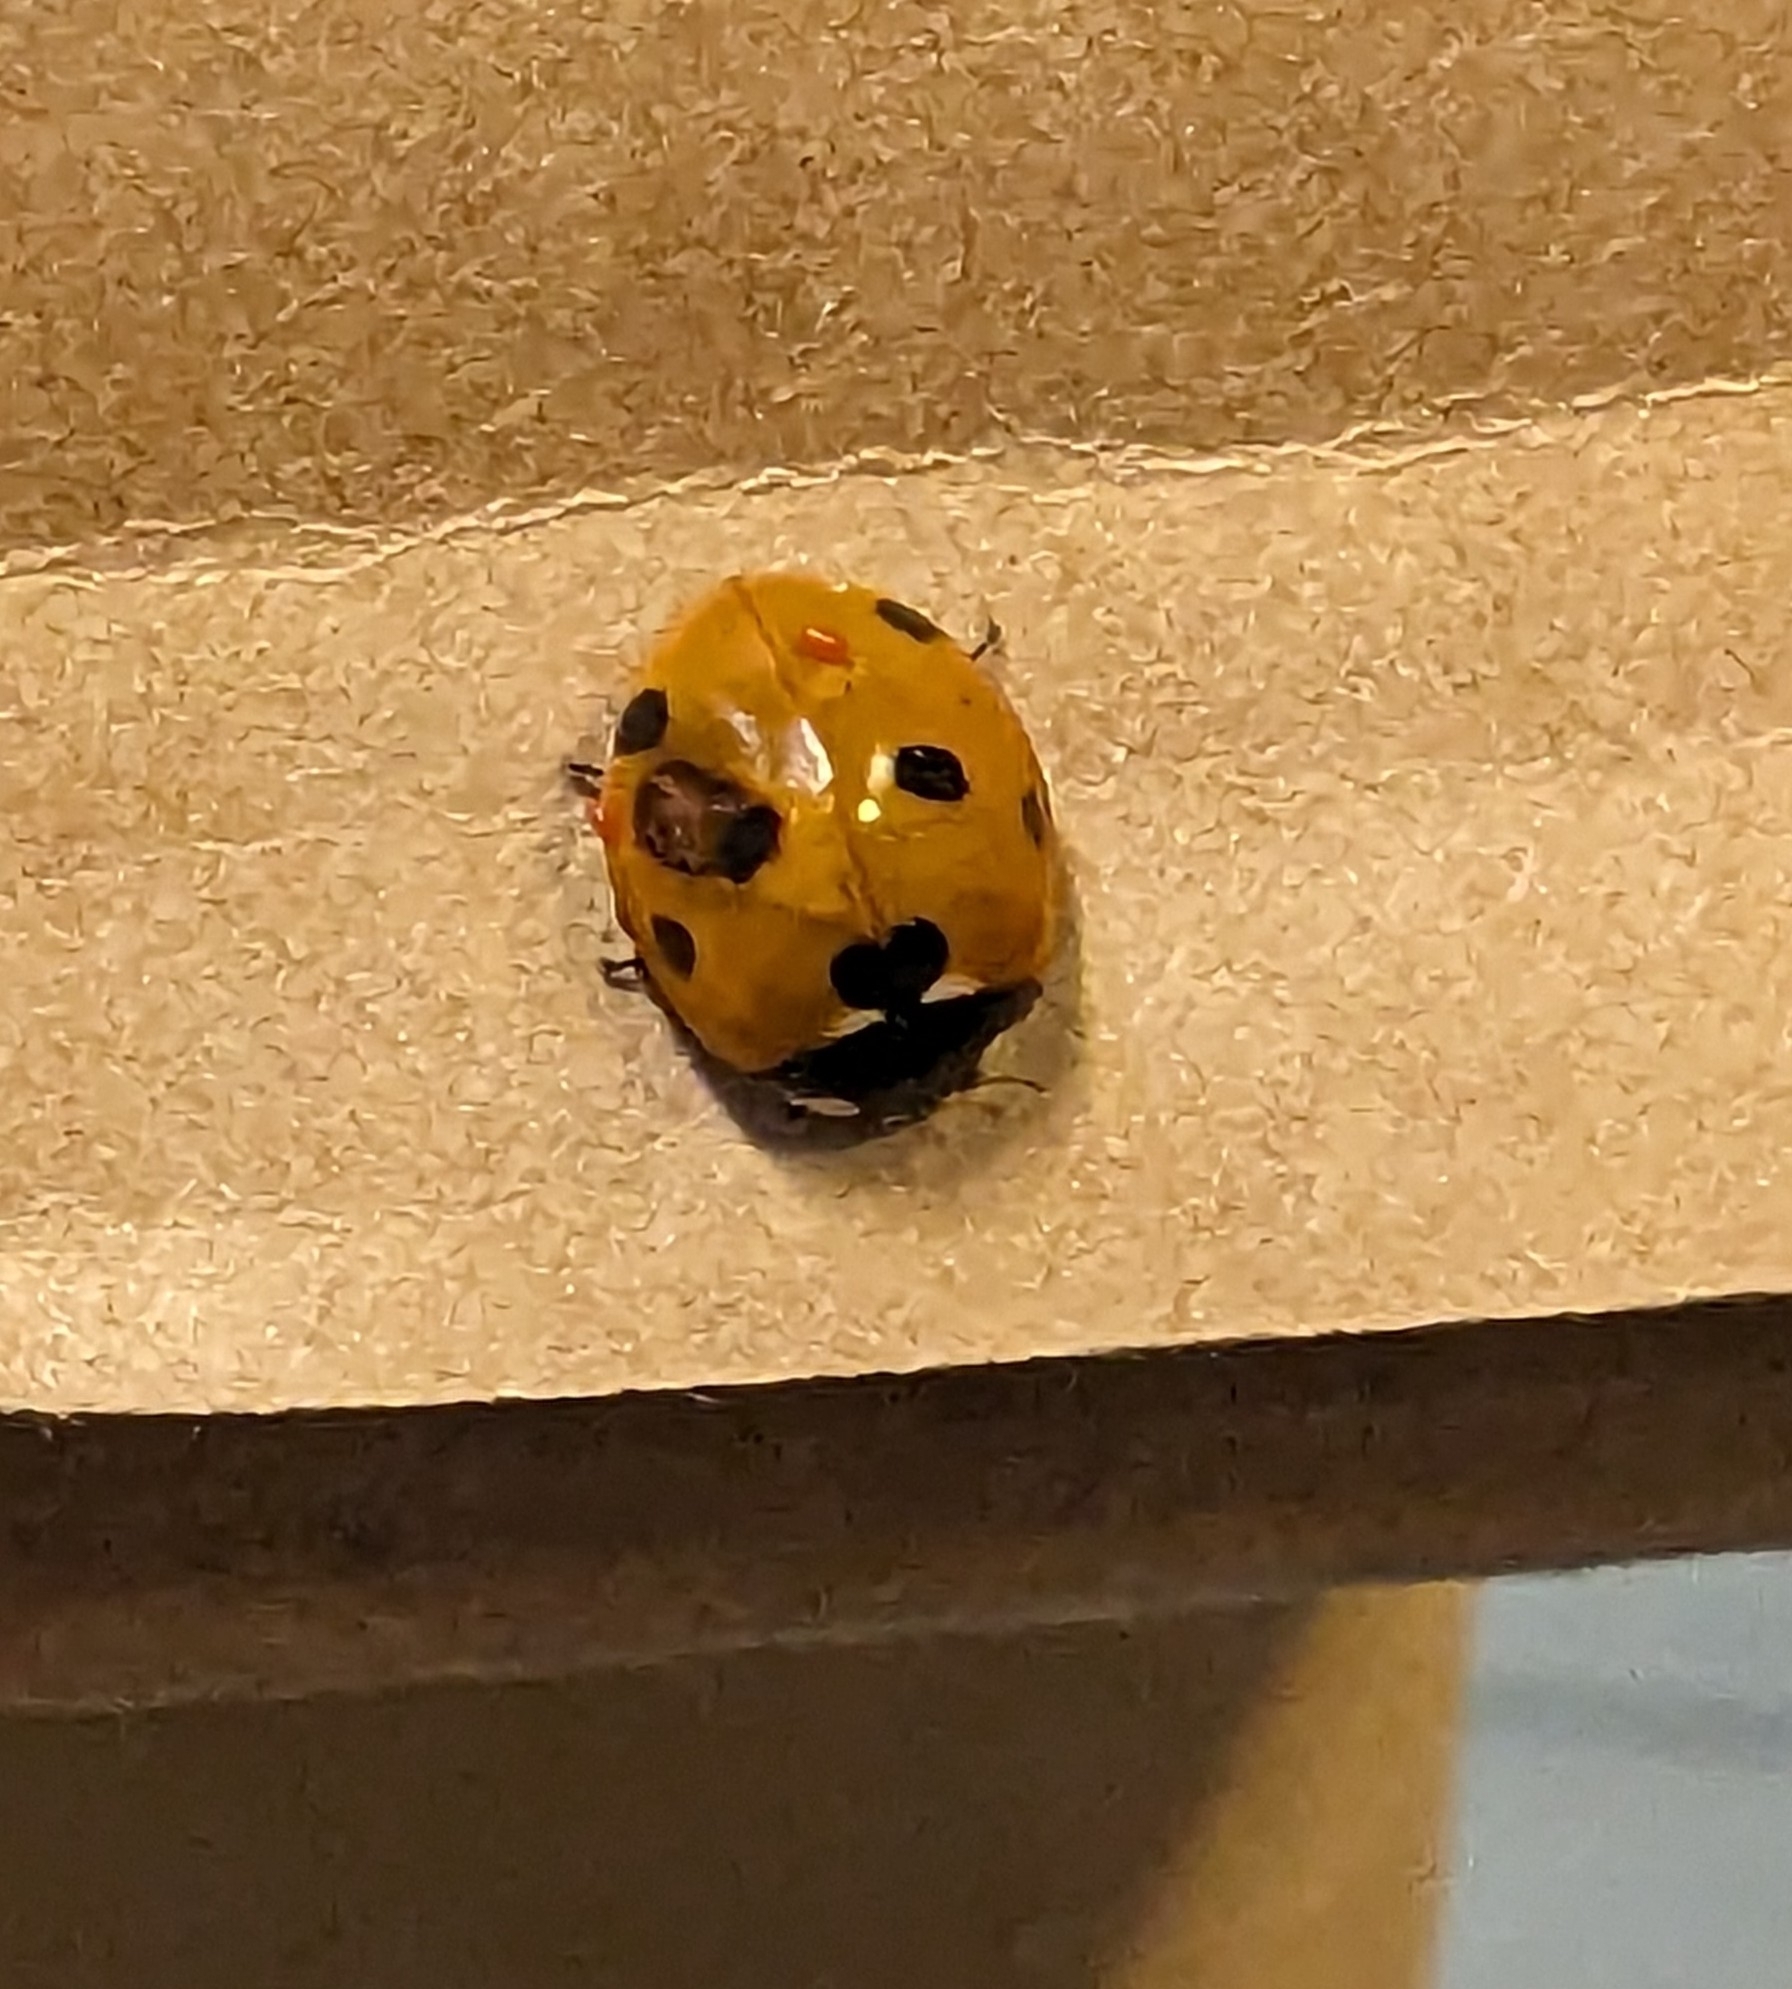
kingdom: Animalia
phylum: Arthropoda
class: Insecta
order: Coleoptera
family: Coccinellidae
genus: Coccinella
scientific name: Coccinella septempunctata
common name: Sevenspotted lady beetle
